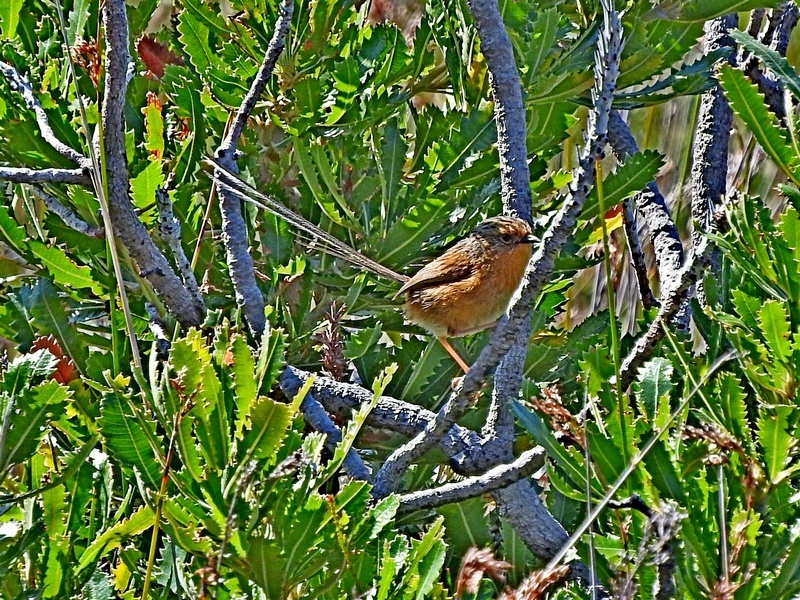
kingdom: Animalia
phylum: Chordata
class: Aves
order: Passeriformes
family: Maluridae
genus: Stipiturus
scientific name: Stipiturus malachurus
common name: Southern emu-wren
